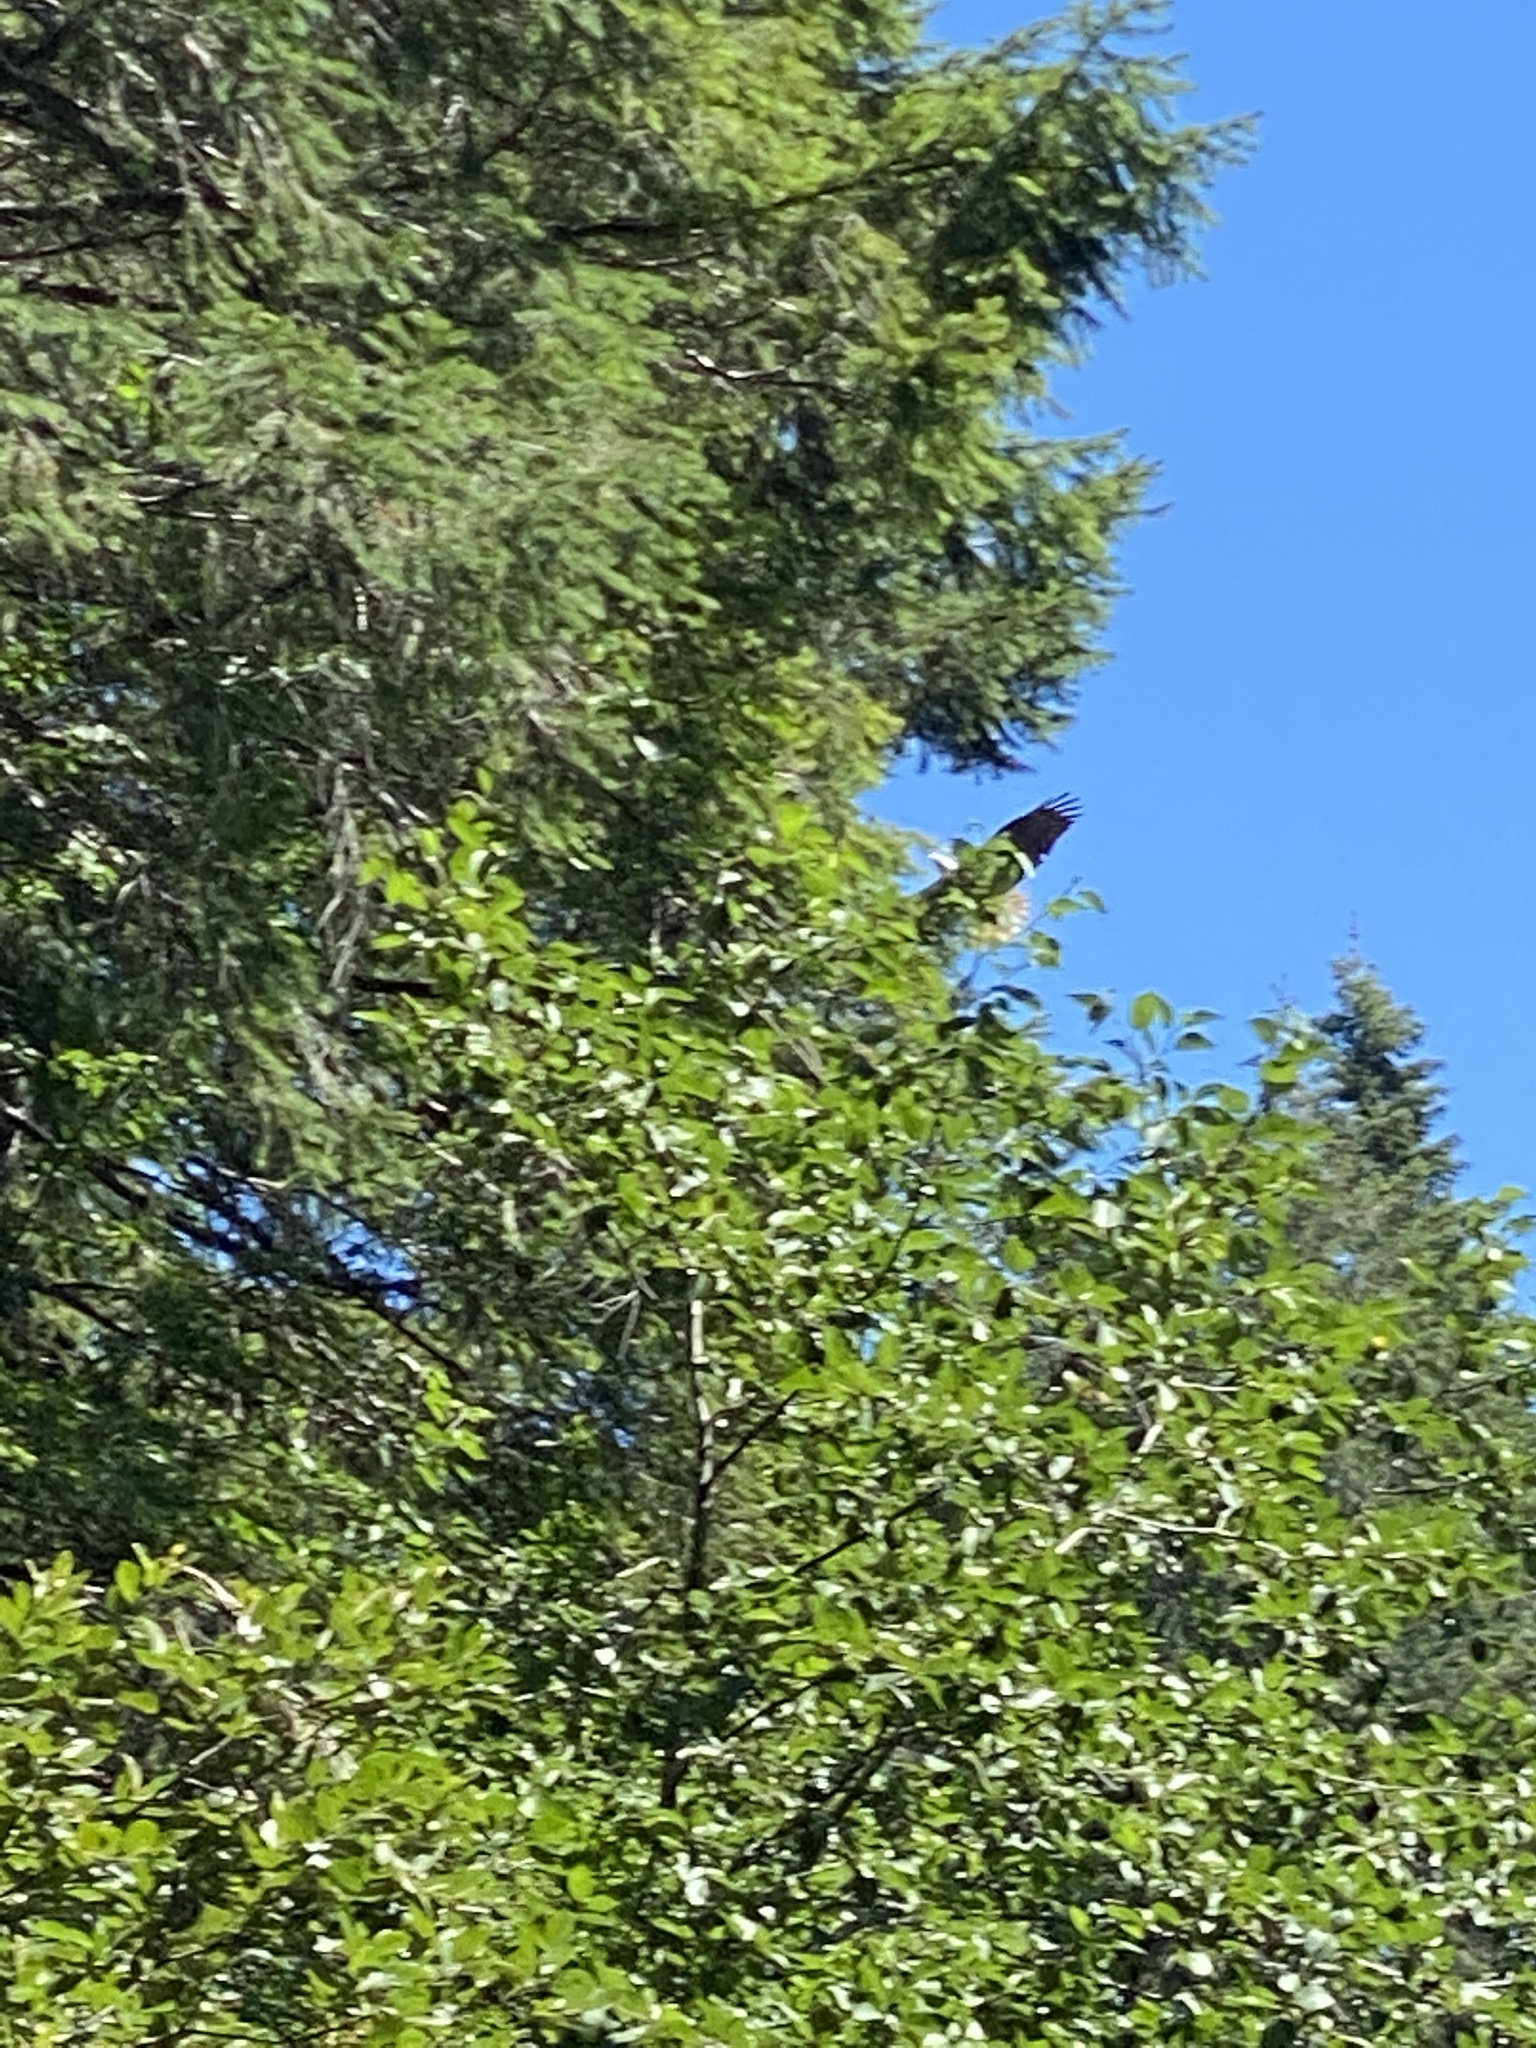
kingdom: Animalia
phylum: Chordata
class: Aves
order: Accipitriformes
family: Accipitridae
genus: Haliaeetus
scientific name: Haliaeetus leucocephalus
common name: Bald eagle
